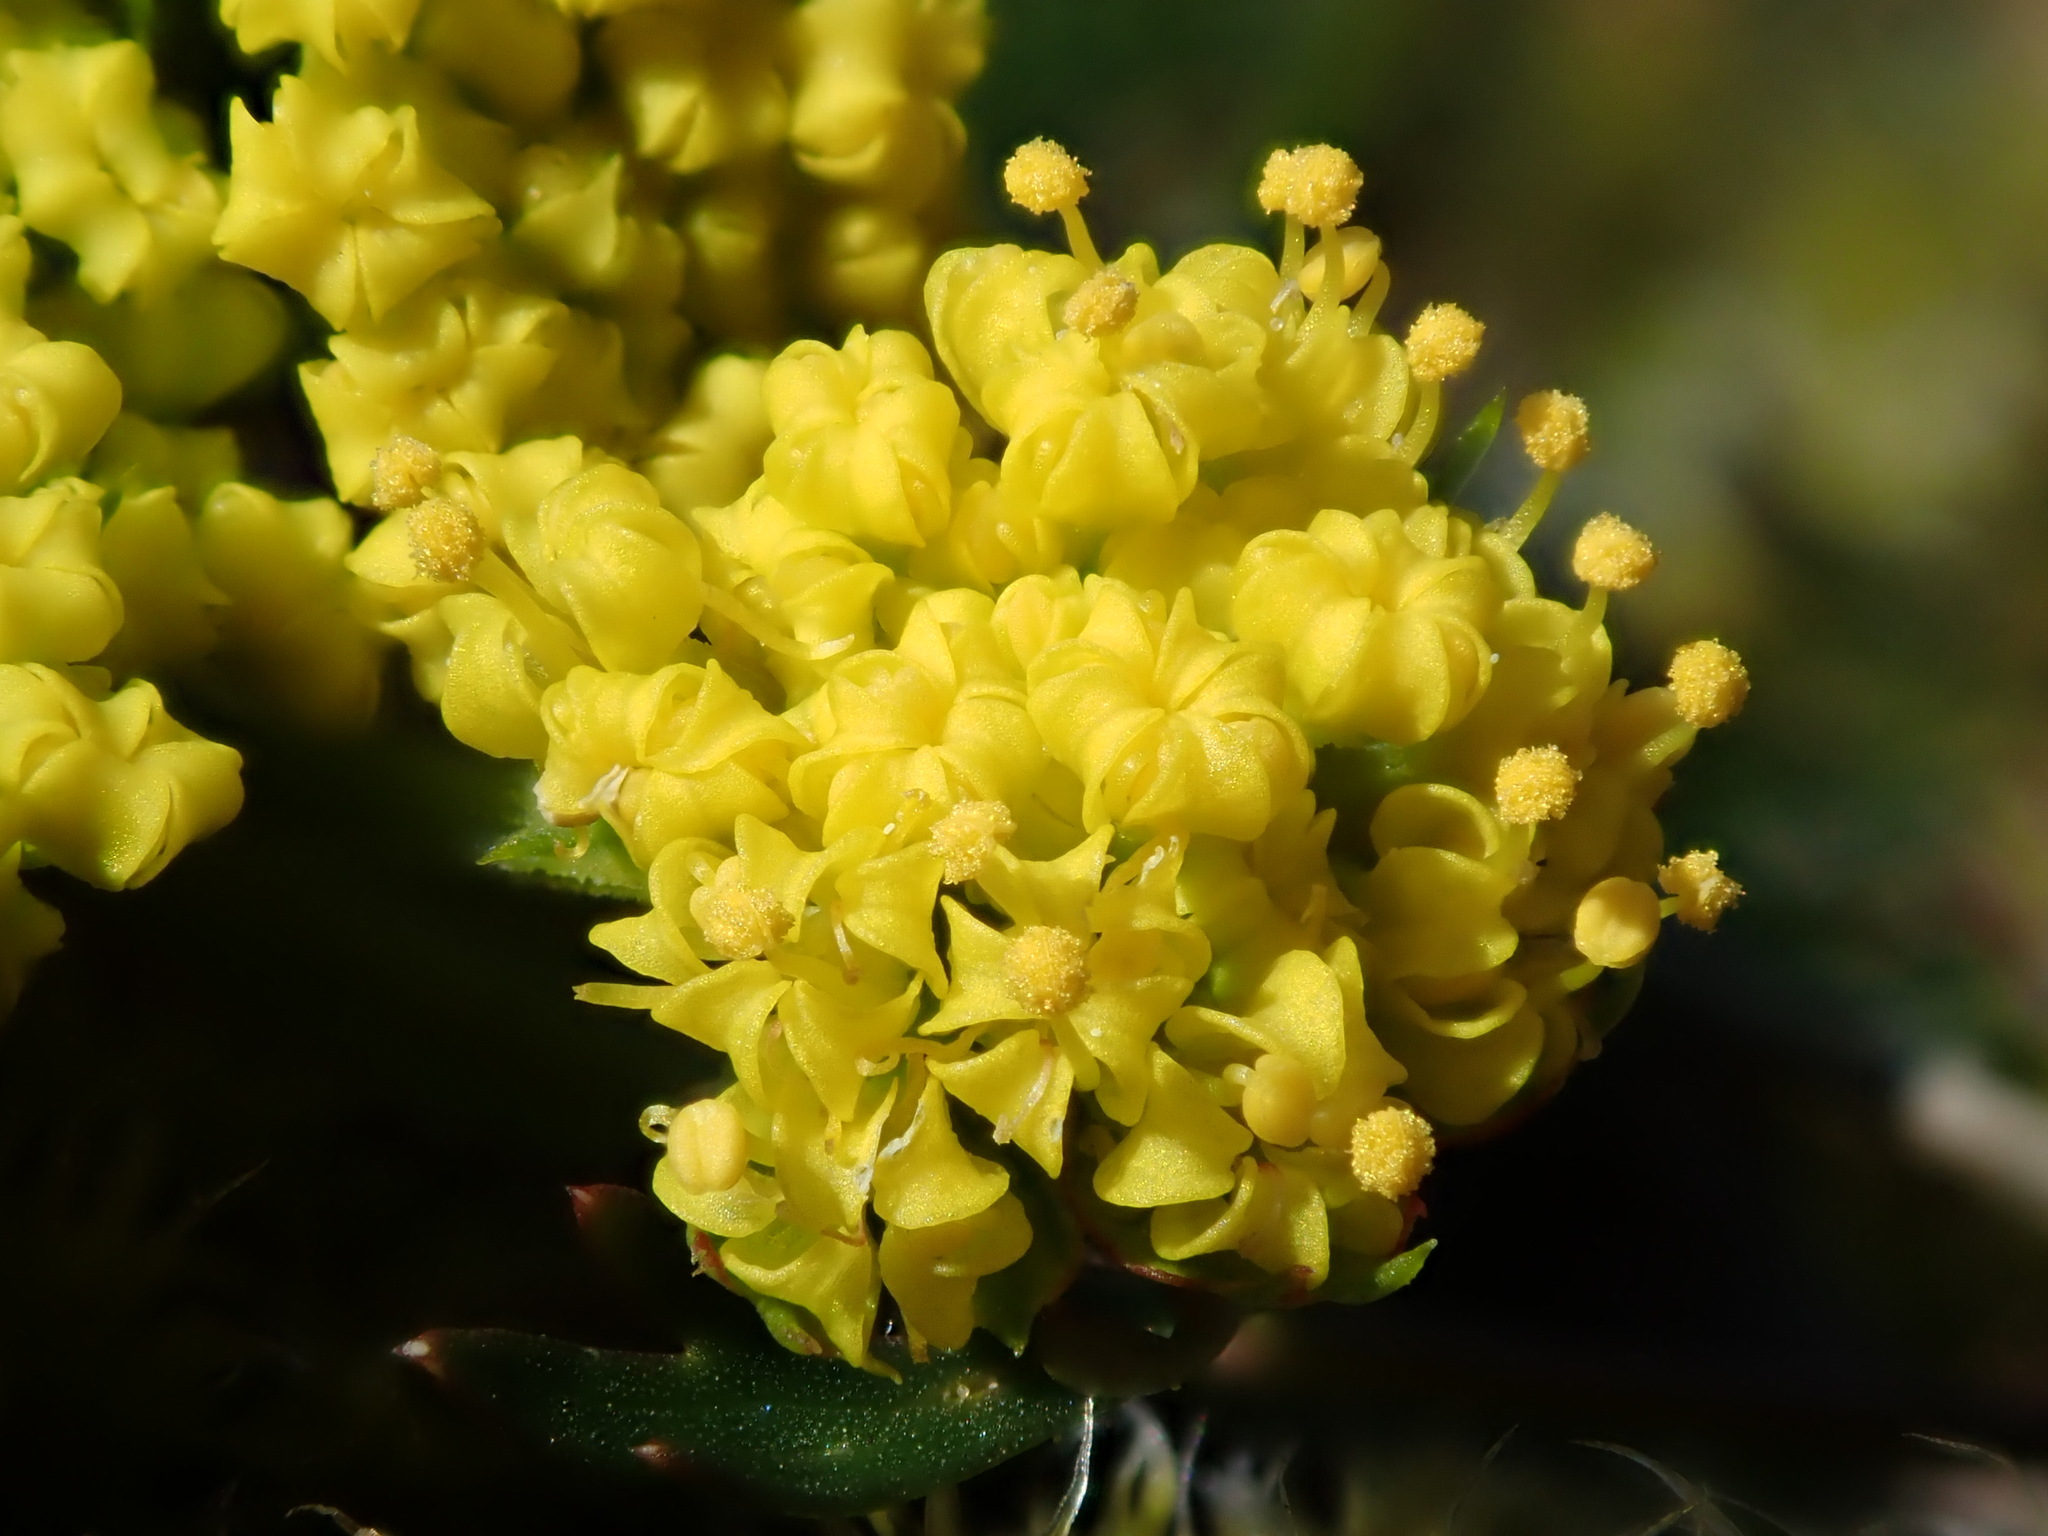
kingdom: Plantae
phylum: Tracheophyta
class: Magnoliopsida
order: Apiales
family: Apiaceae
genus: Lomatium
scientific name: Lomatium utriculatum
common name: Fine-leaf desert-parsley
